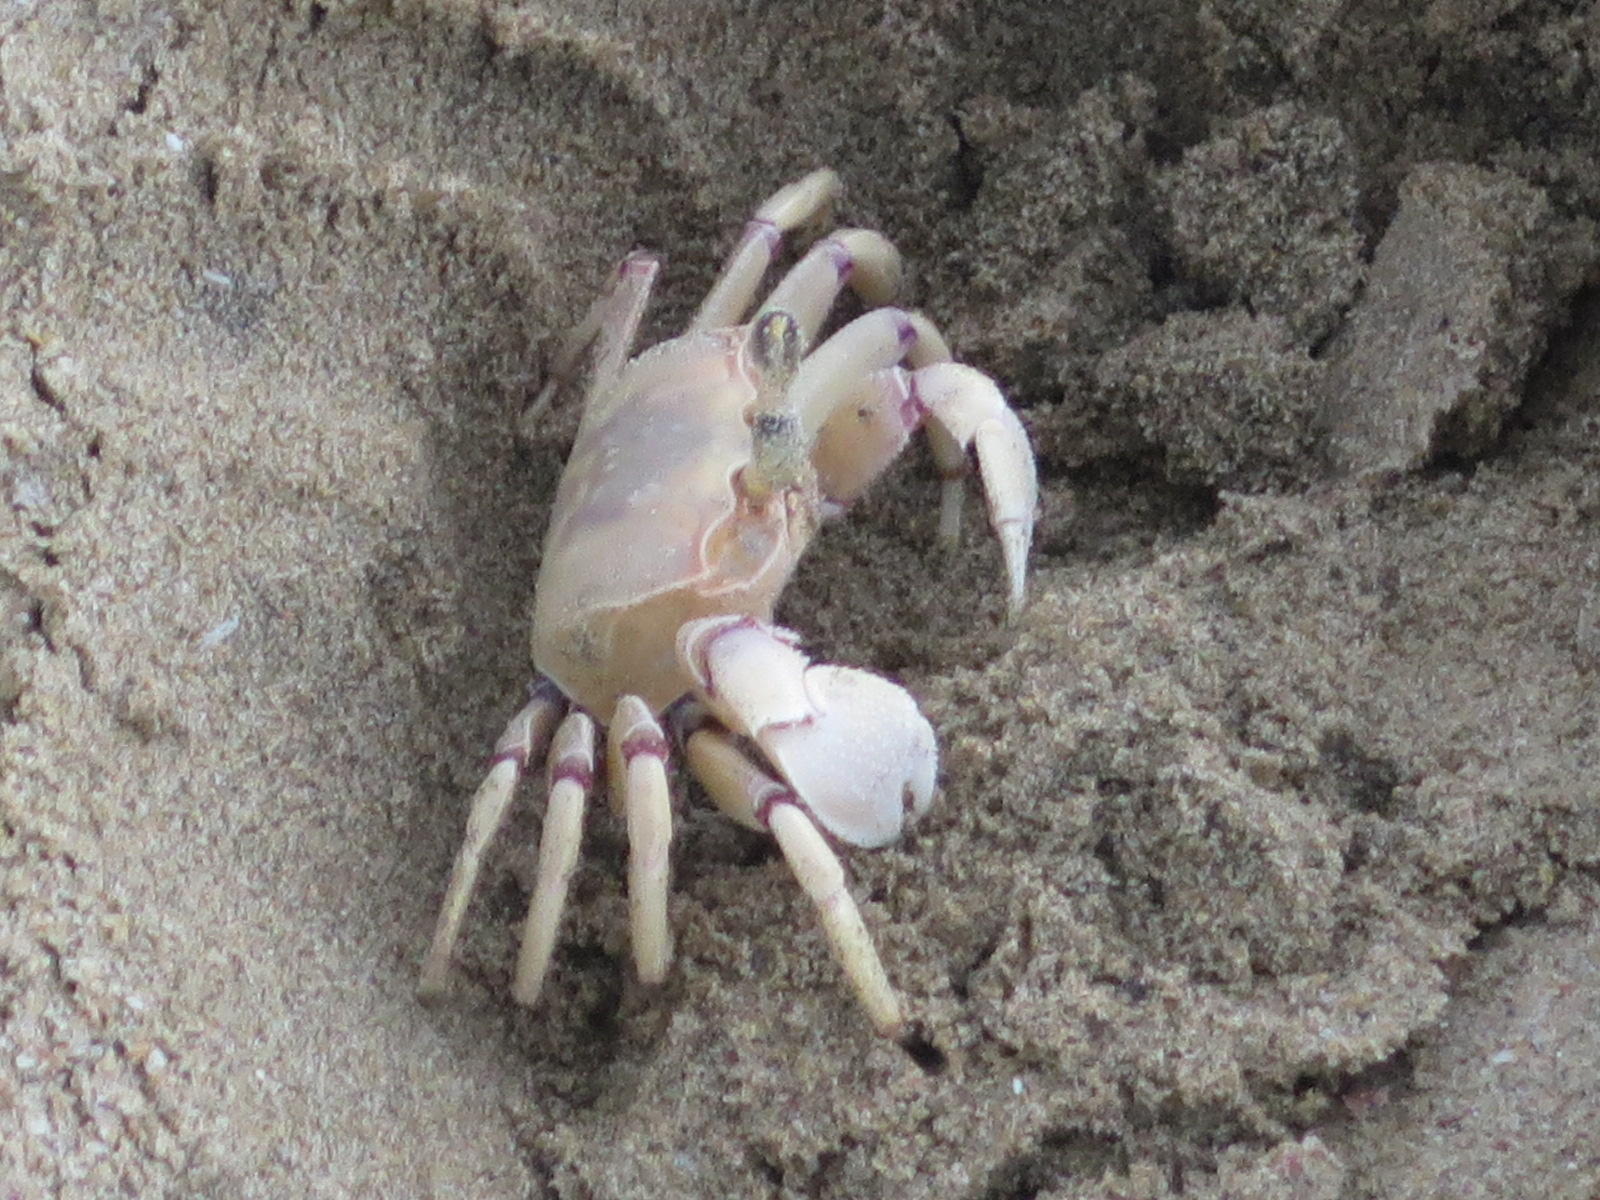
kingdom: Animalia
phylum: Arthropoda
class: Malacostraca
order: Decapoda
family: Ocypodidae
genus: Ocypode
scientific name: Ocypode ryderi
